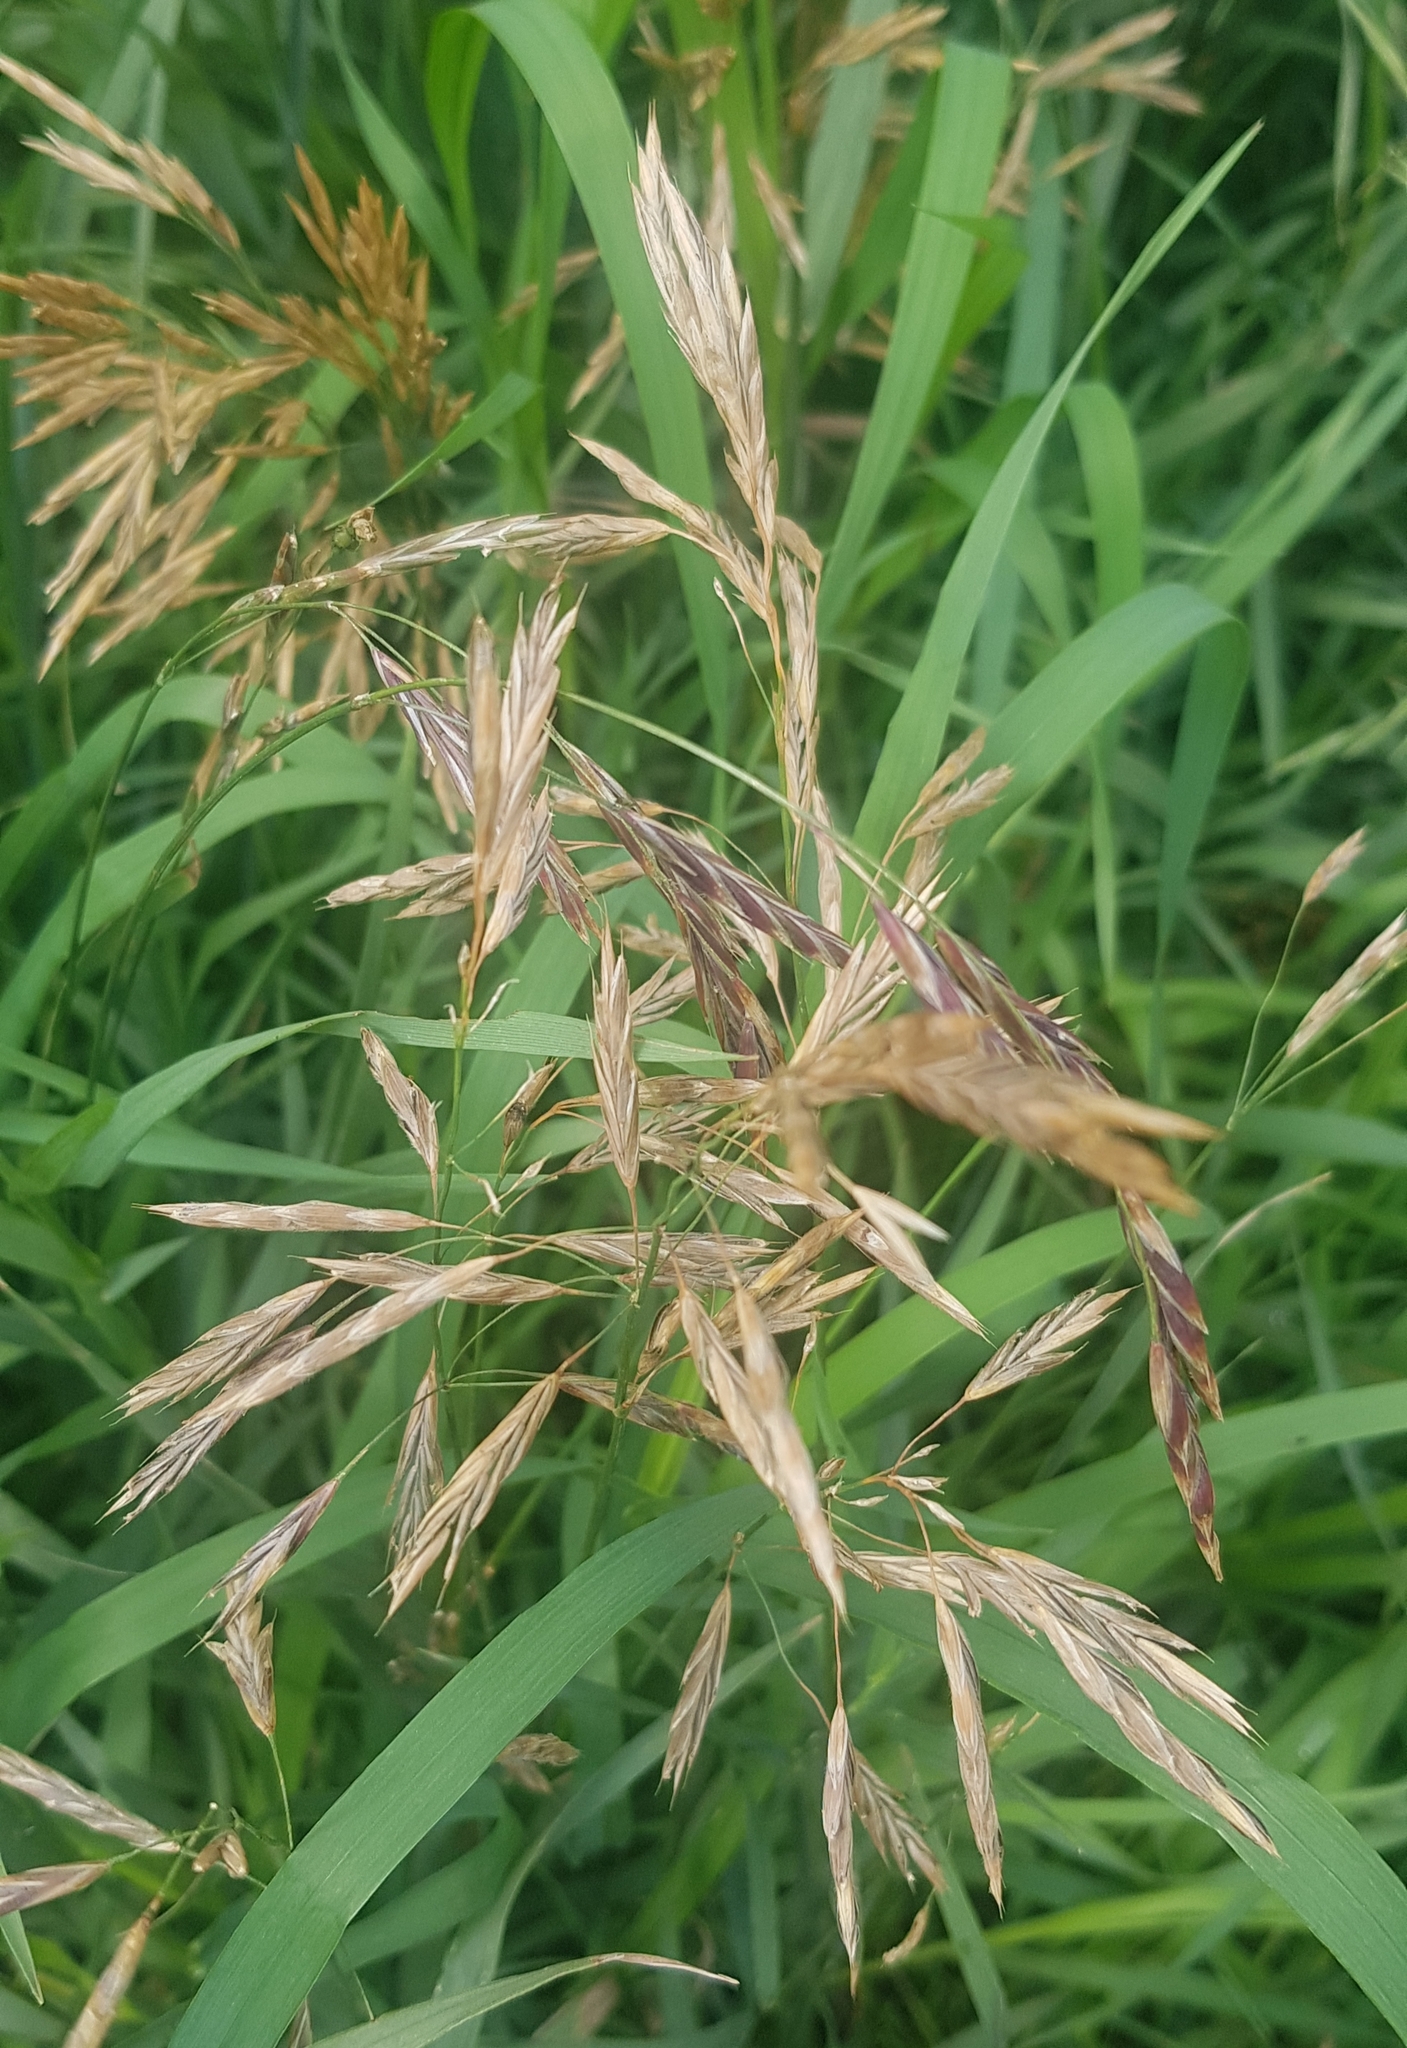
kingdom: Plantae
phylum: Tracheophyta
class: Liliopsida
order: Poales
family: Poaceae
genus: Bromus
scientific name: Bromus inermis
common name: Smooth brome
